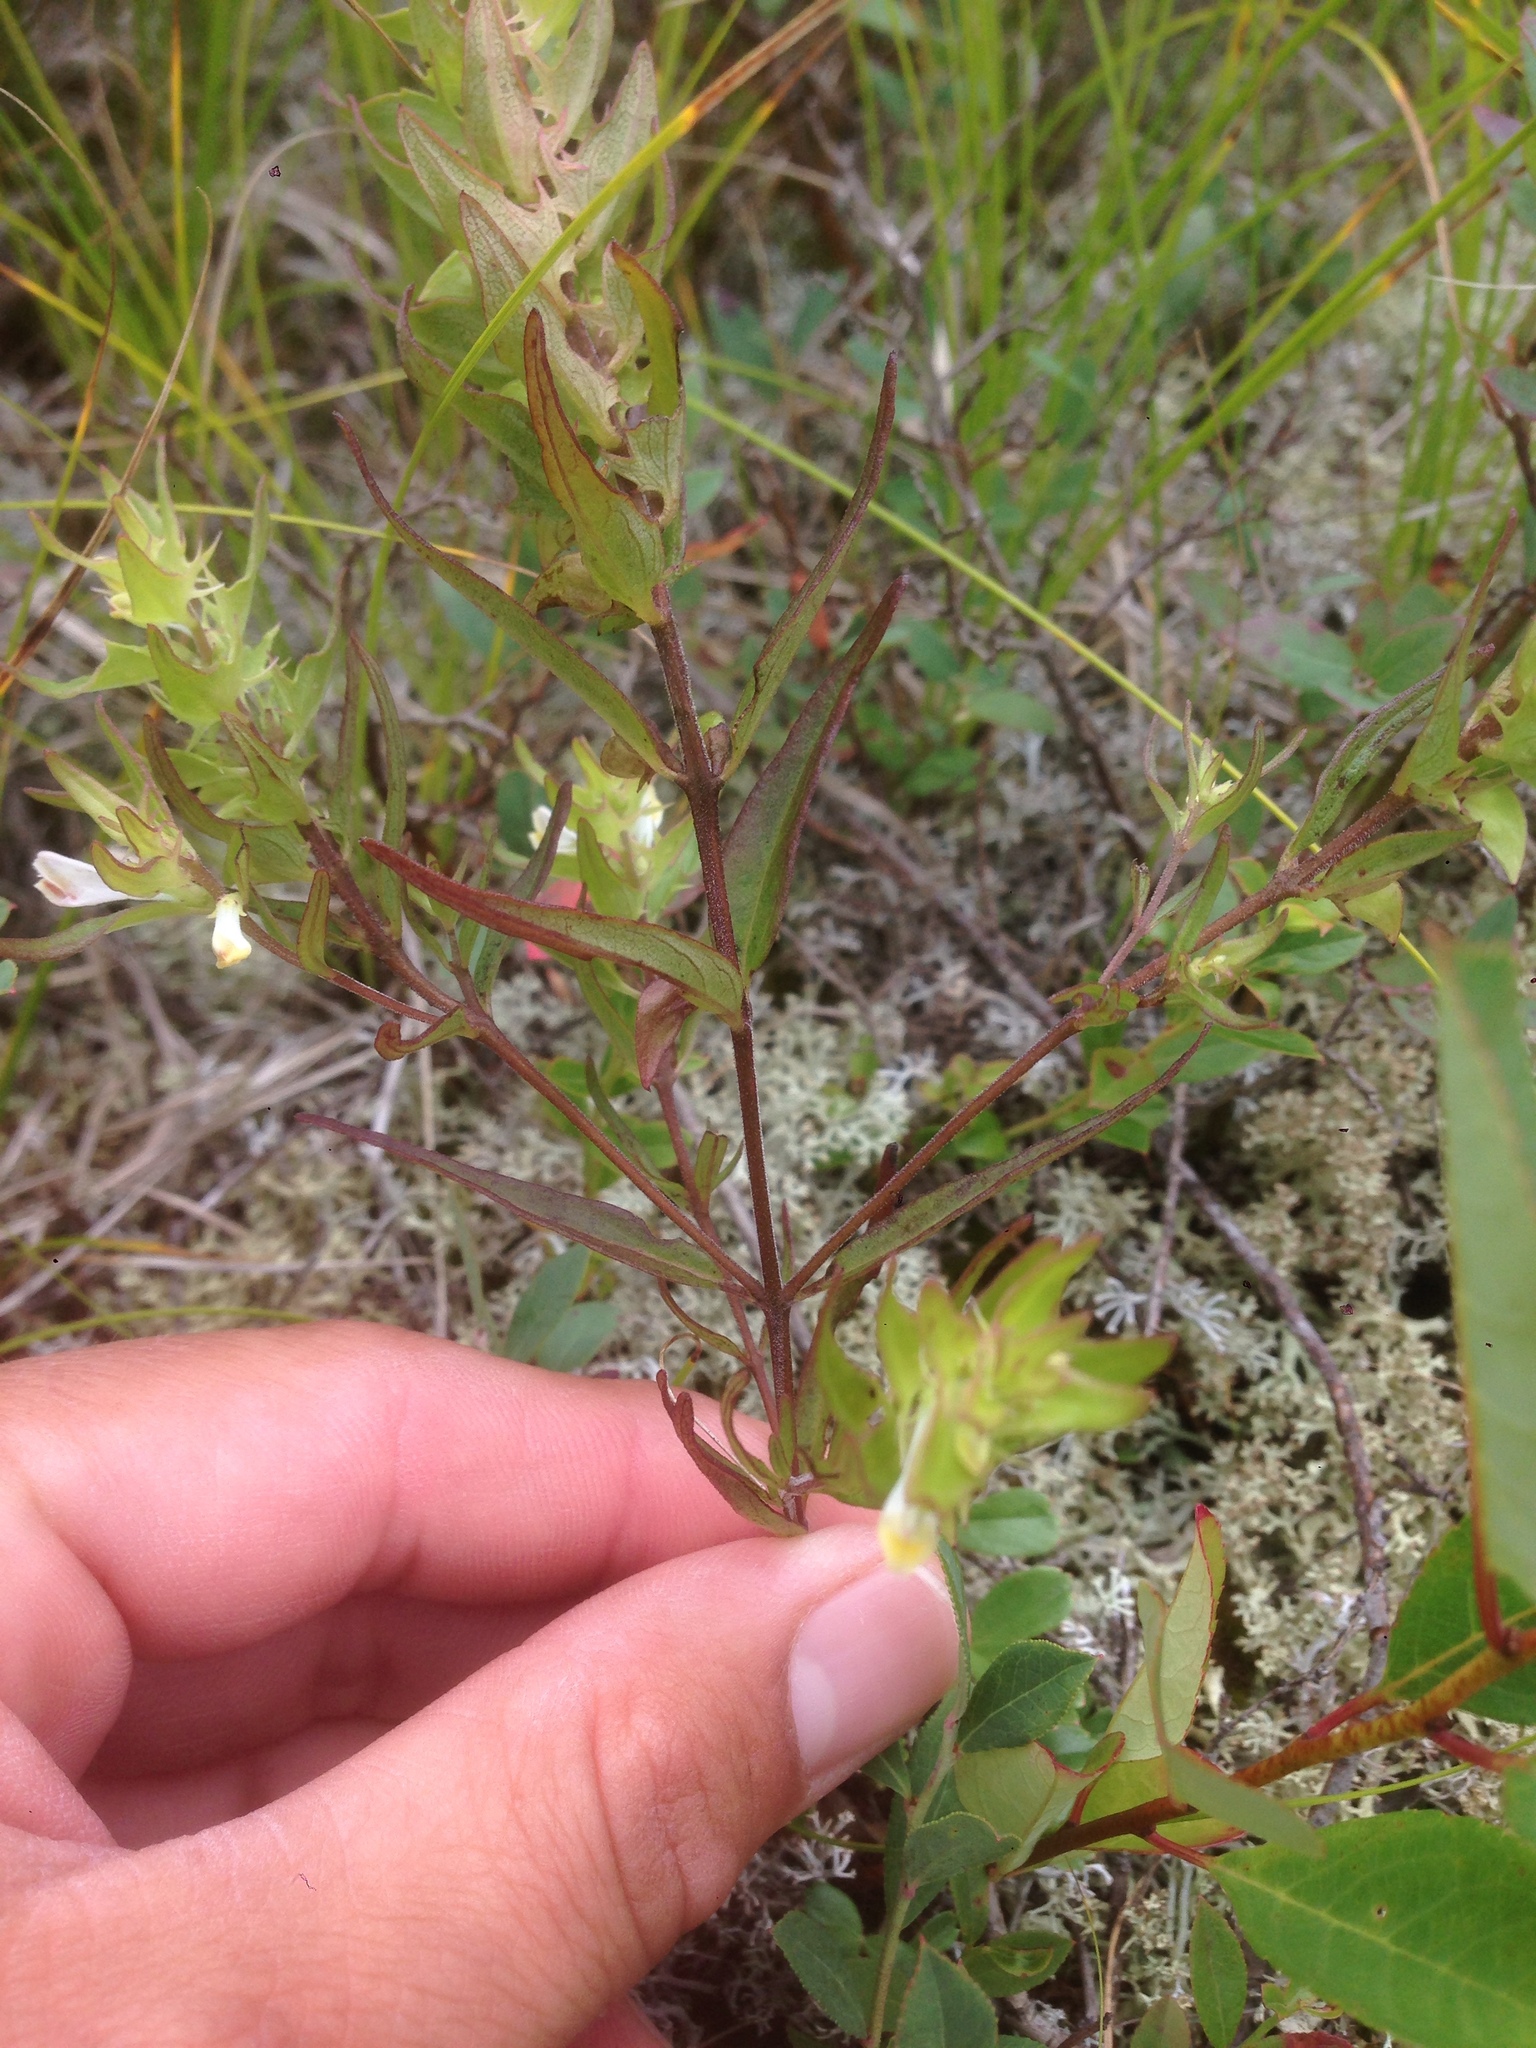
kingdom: Plantae
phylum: Tracheophyta
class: Magnoliopsida
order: Lamiales
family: Orobanchaceae
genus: Melampyrum
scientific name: Melampyrum lineare
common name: American cow-wheat
